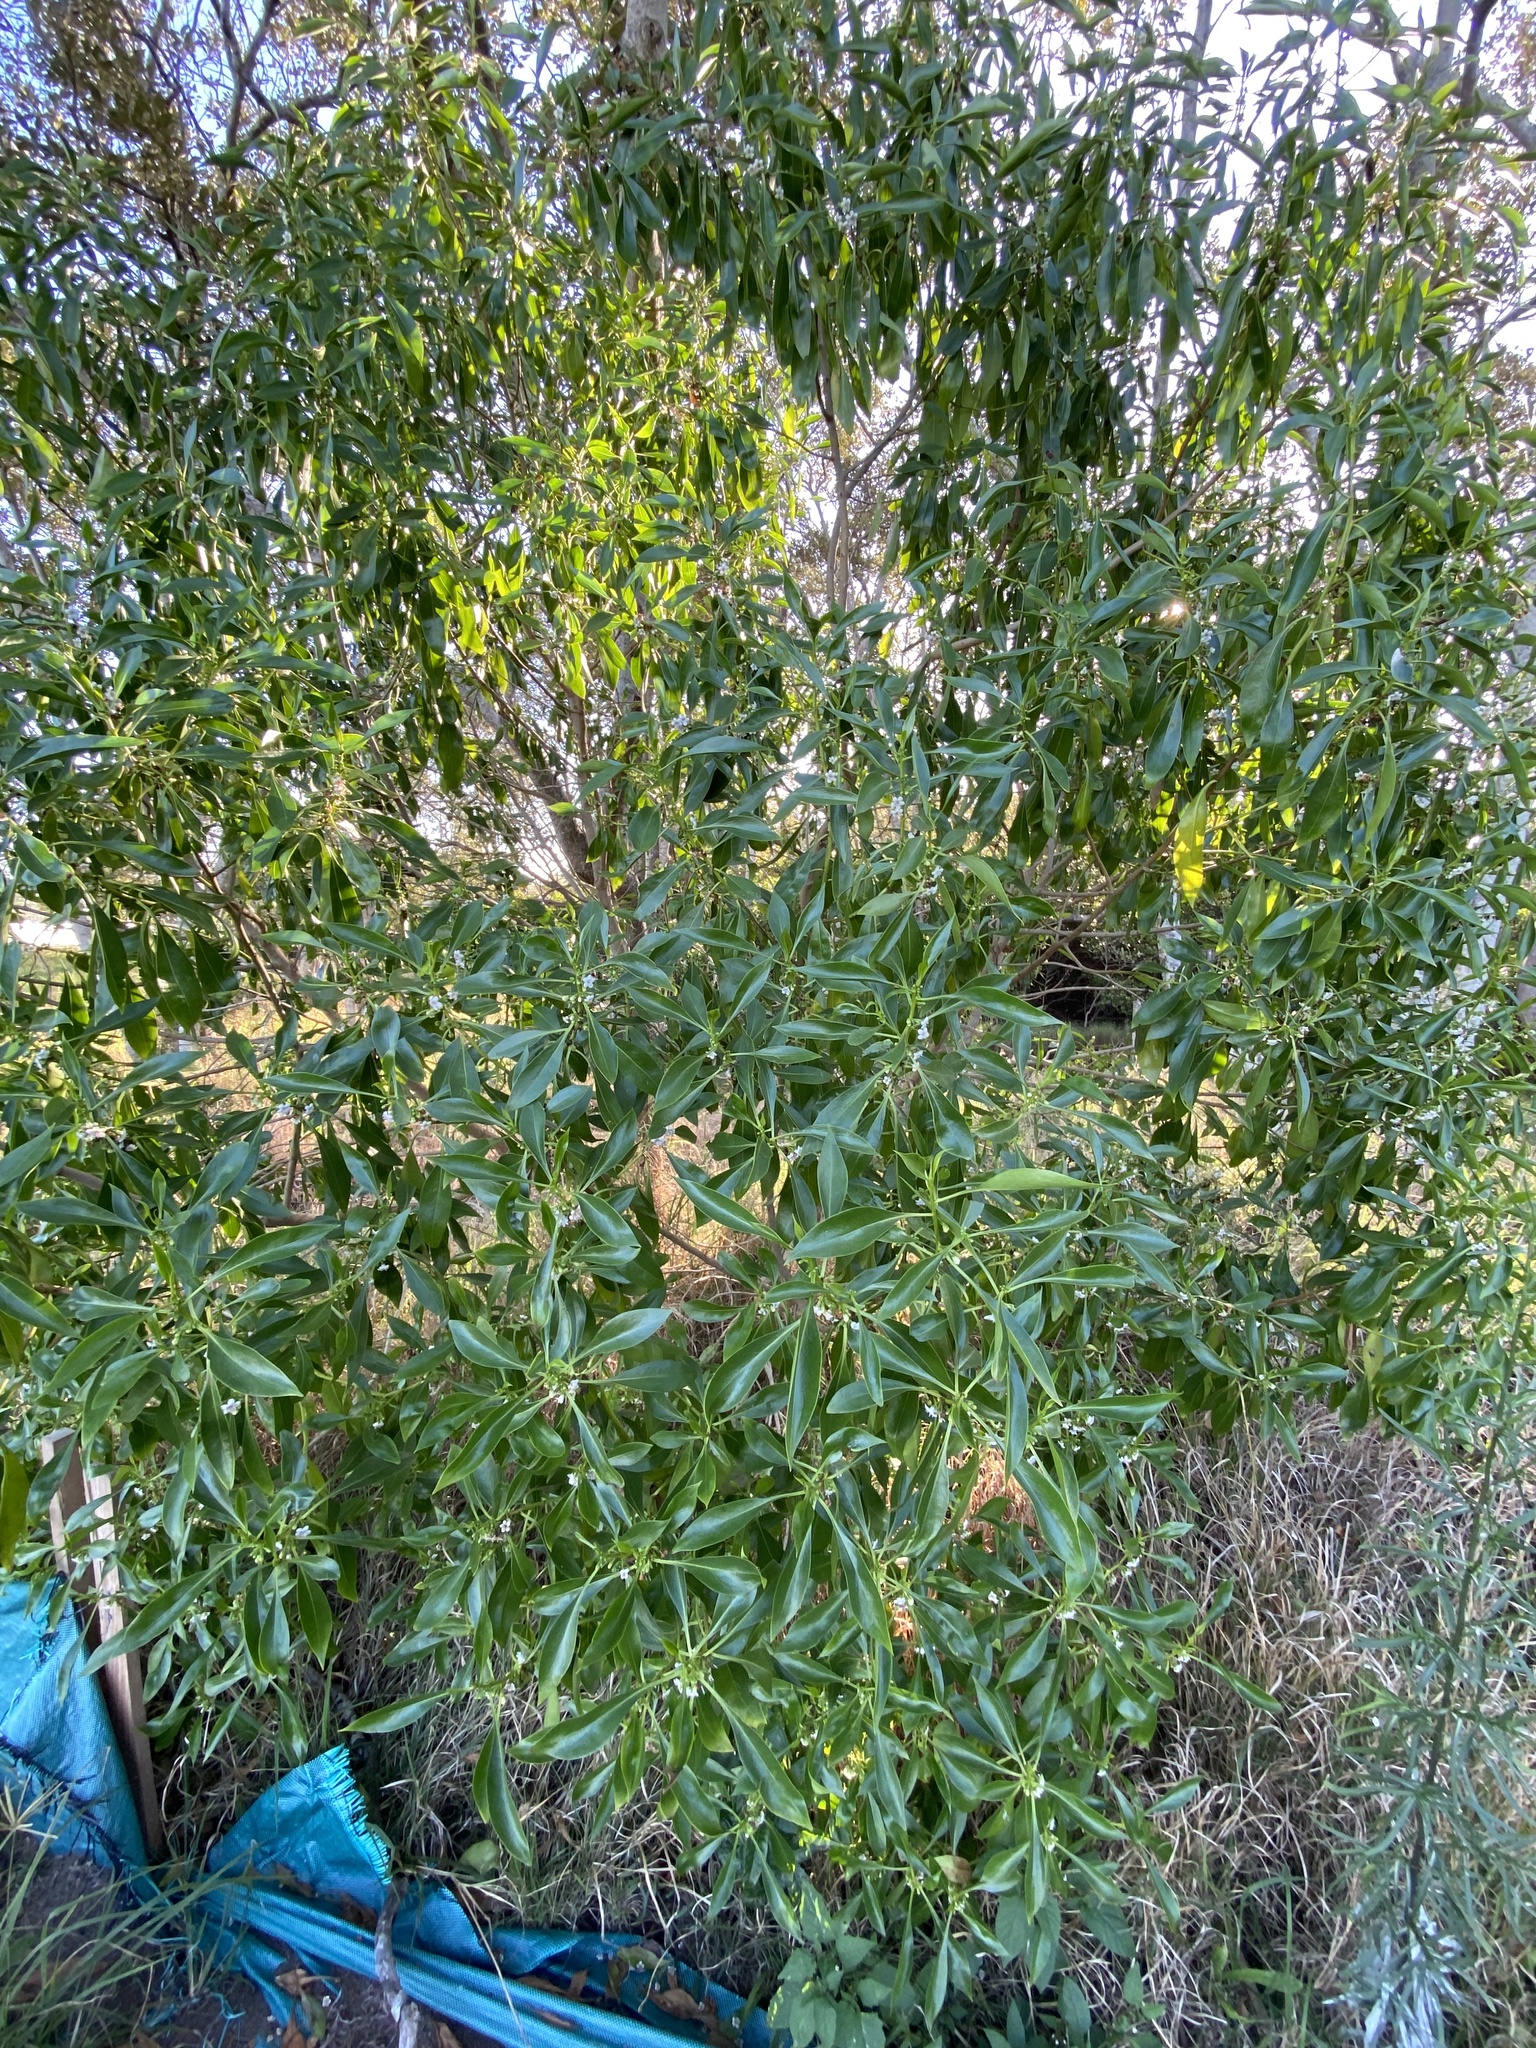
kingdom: Plantae
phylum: Tracheophyta
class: Magnoliopsida
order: Lamiales
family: Scrophulariaceae
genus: Myoporum
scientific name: Myoporum acuminatum
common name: Pointed boobialla
